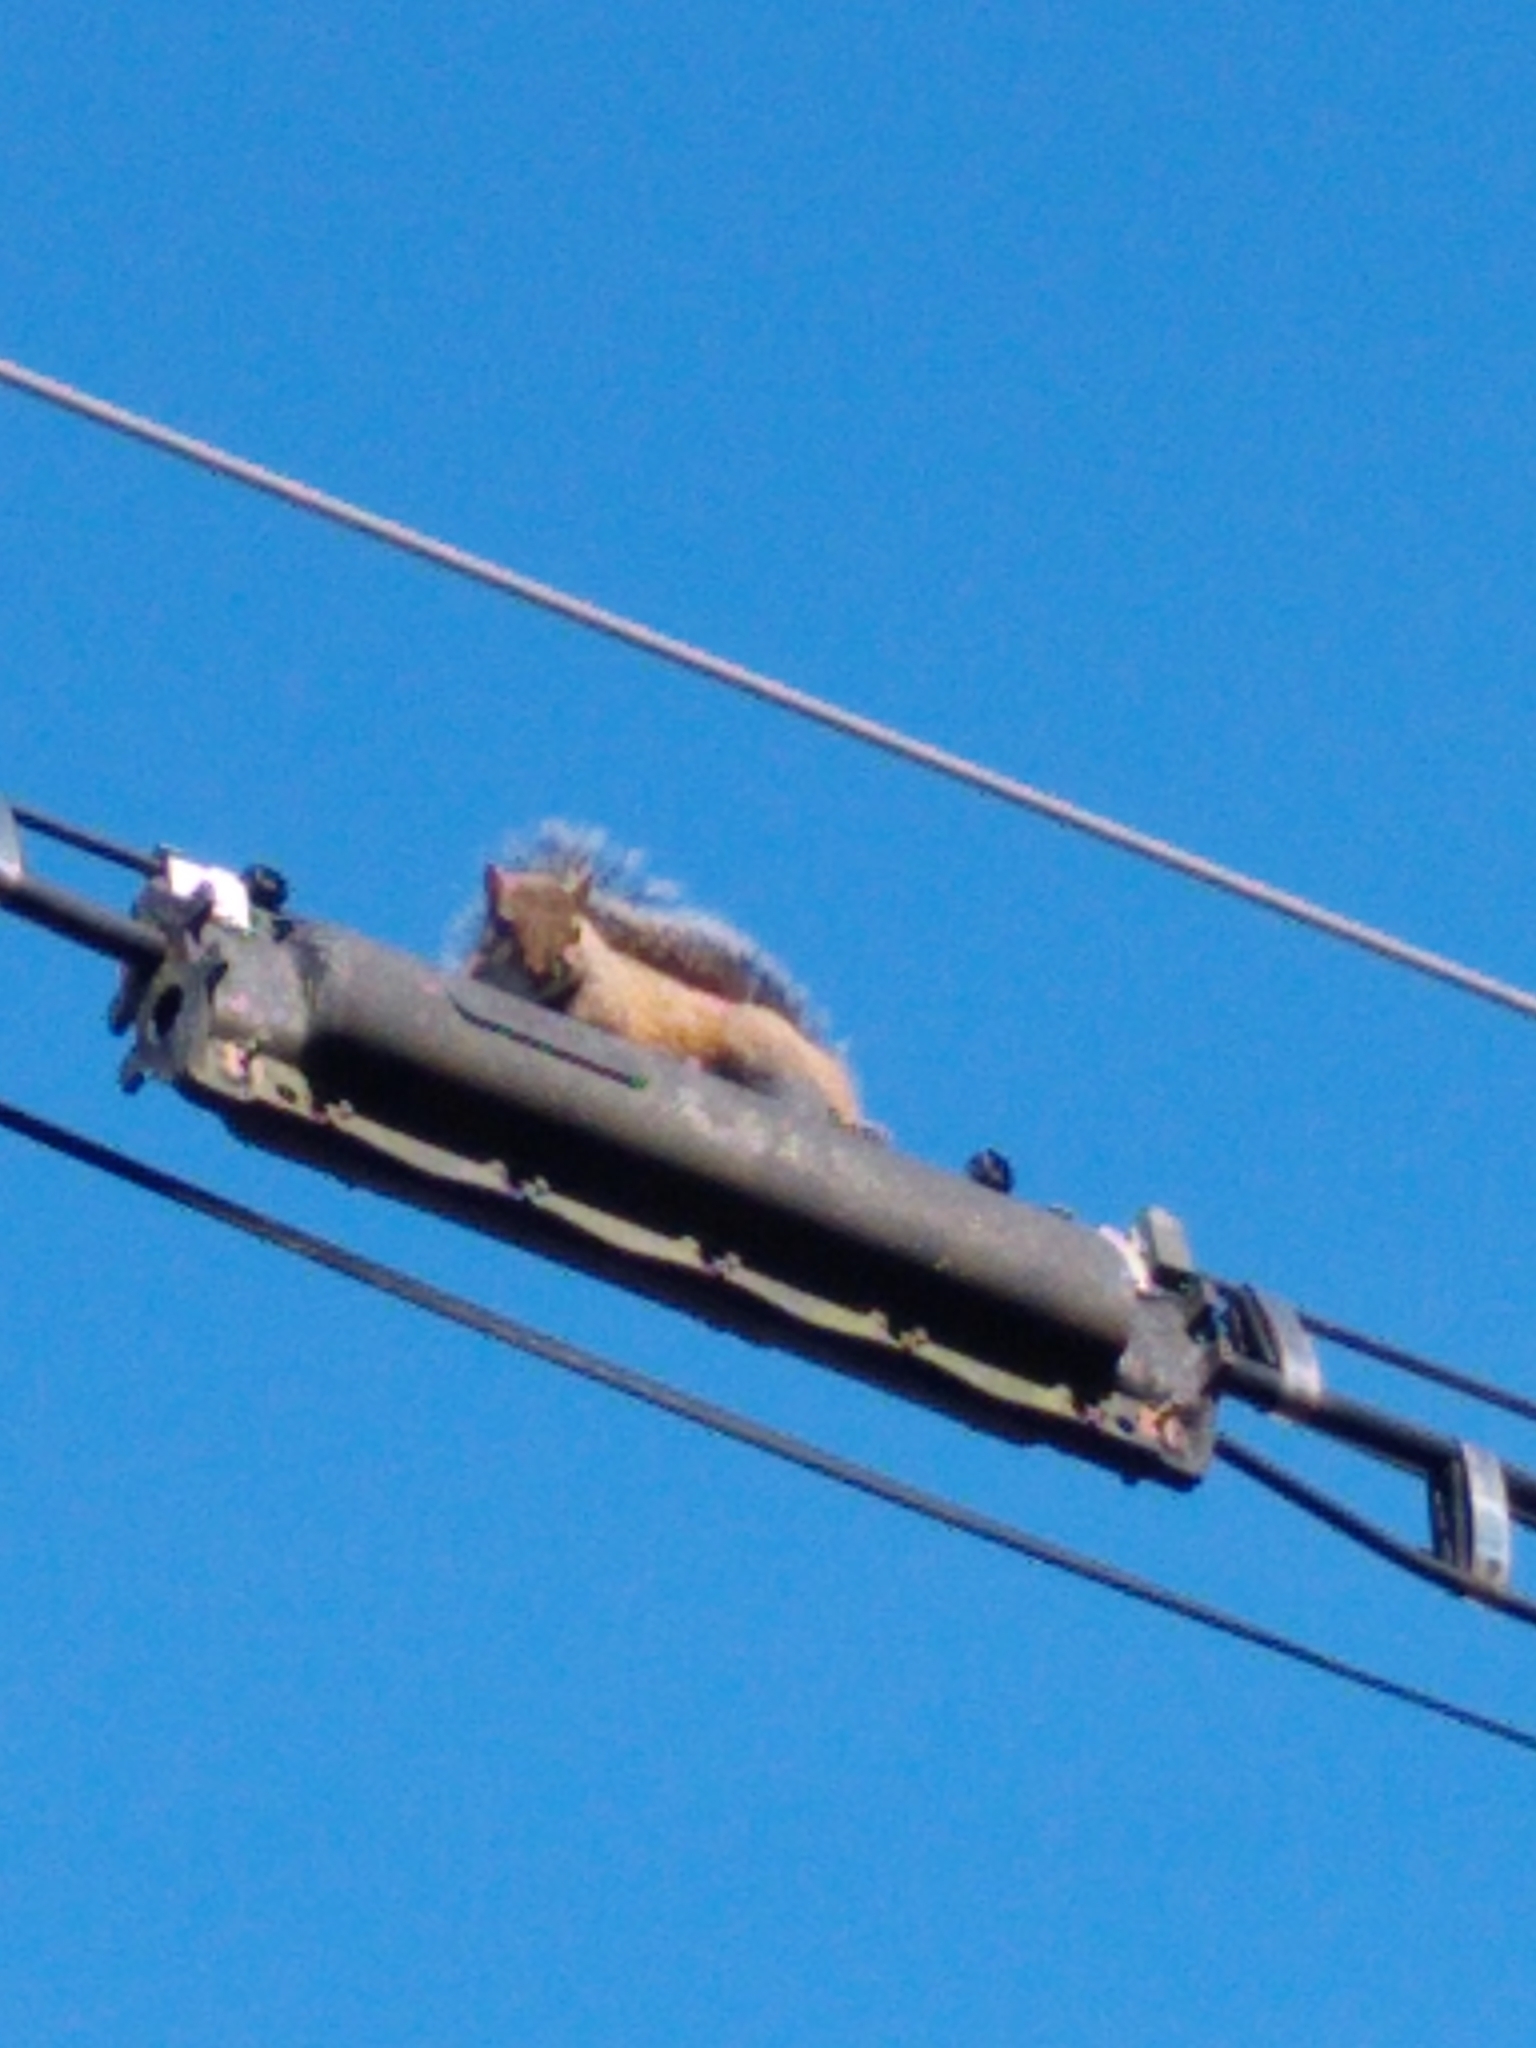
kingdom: Animalia
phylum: Chordata
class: Mammalia
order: Rodentia
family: Sciuridae
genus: Sciurus
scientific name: Sciurus carolinensis
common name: Eastern gray squirrel
